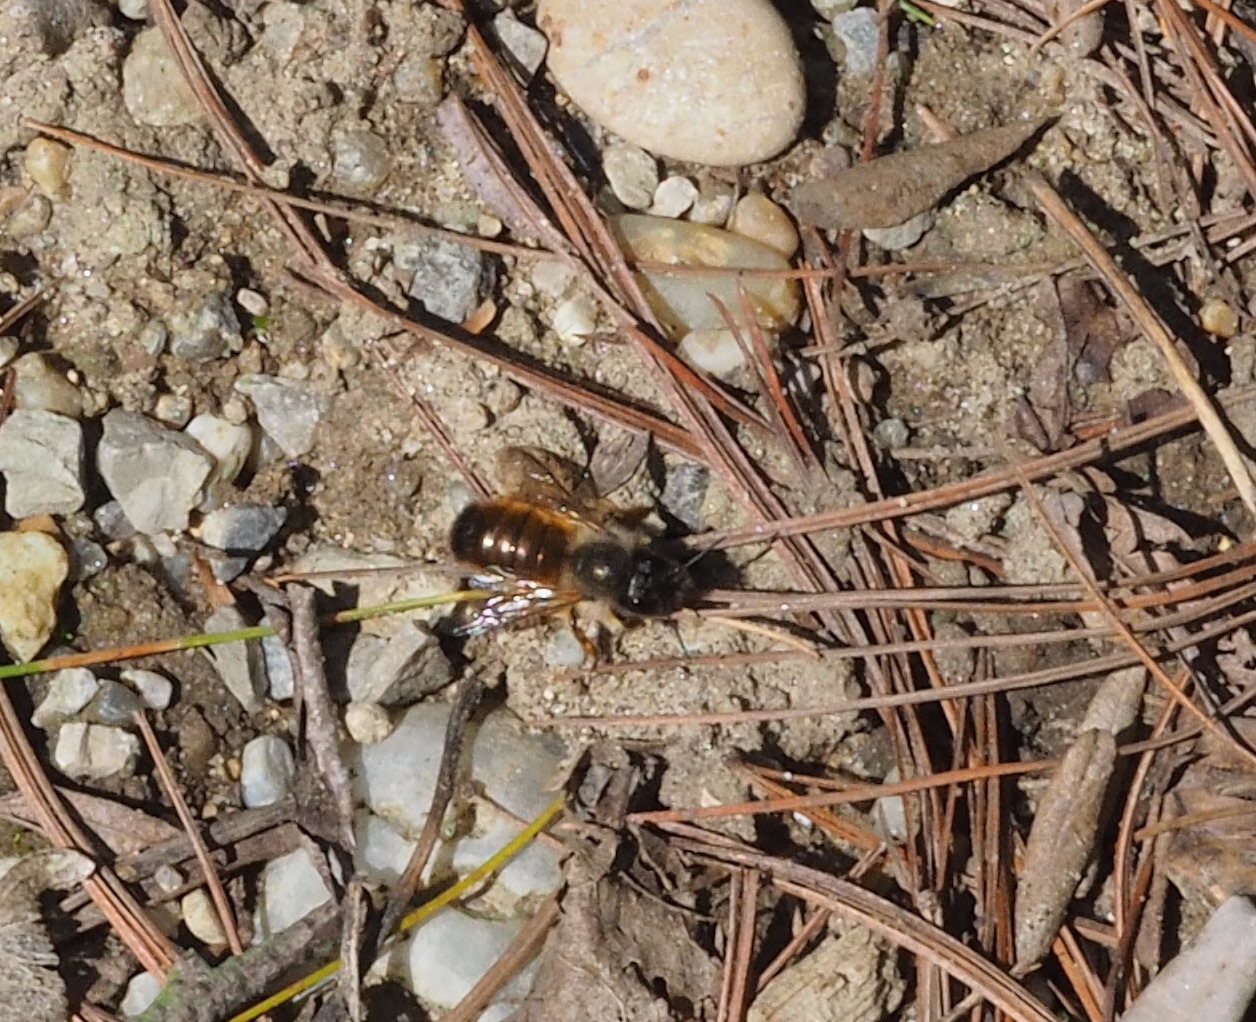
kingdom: Animalia
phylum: Arthropoda
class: Insecta
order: Hymenoptera
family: Megachilidae
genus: Osmia
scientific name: Osmia bicornis
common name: Red mason bee
